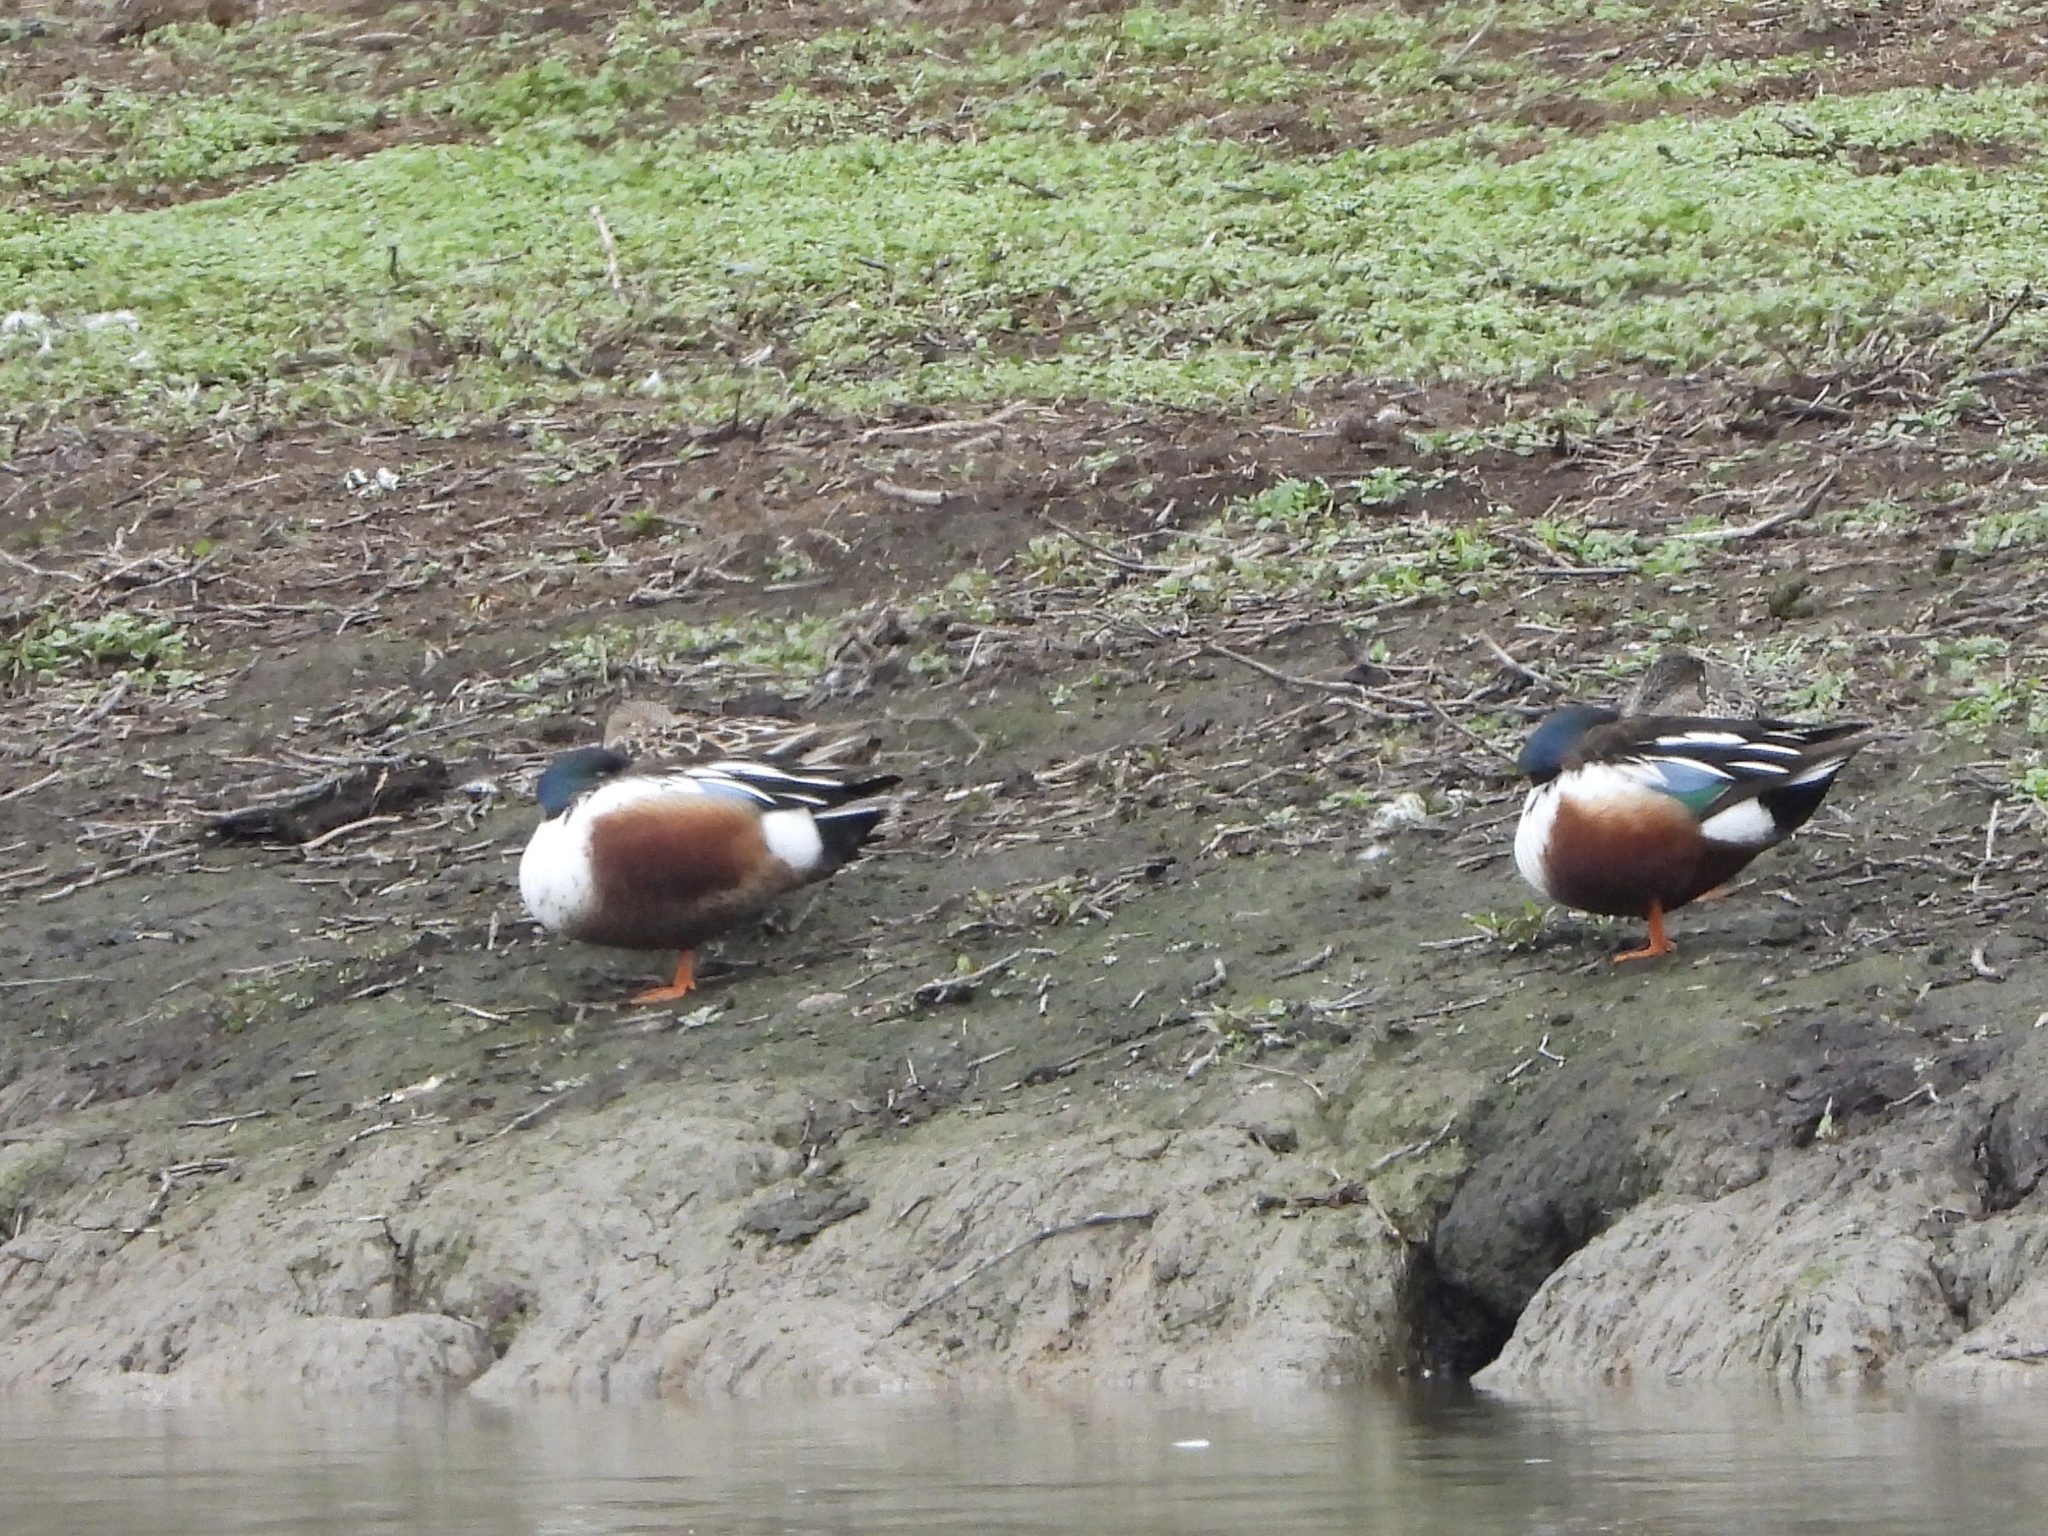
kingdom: Animalia
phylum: Chordata
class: Aves
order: Anseriformes
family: Anatidae
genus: Spatula
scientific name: Spatula clypeata
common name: Northern shoveler
